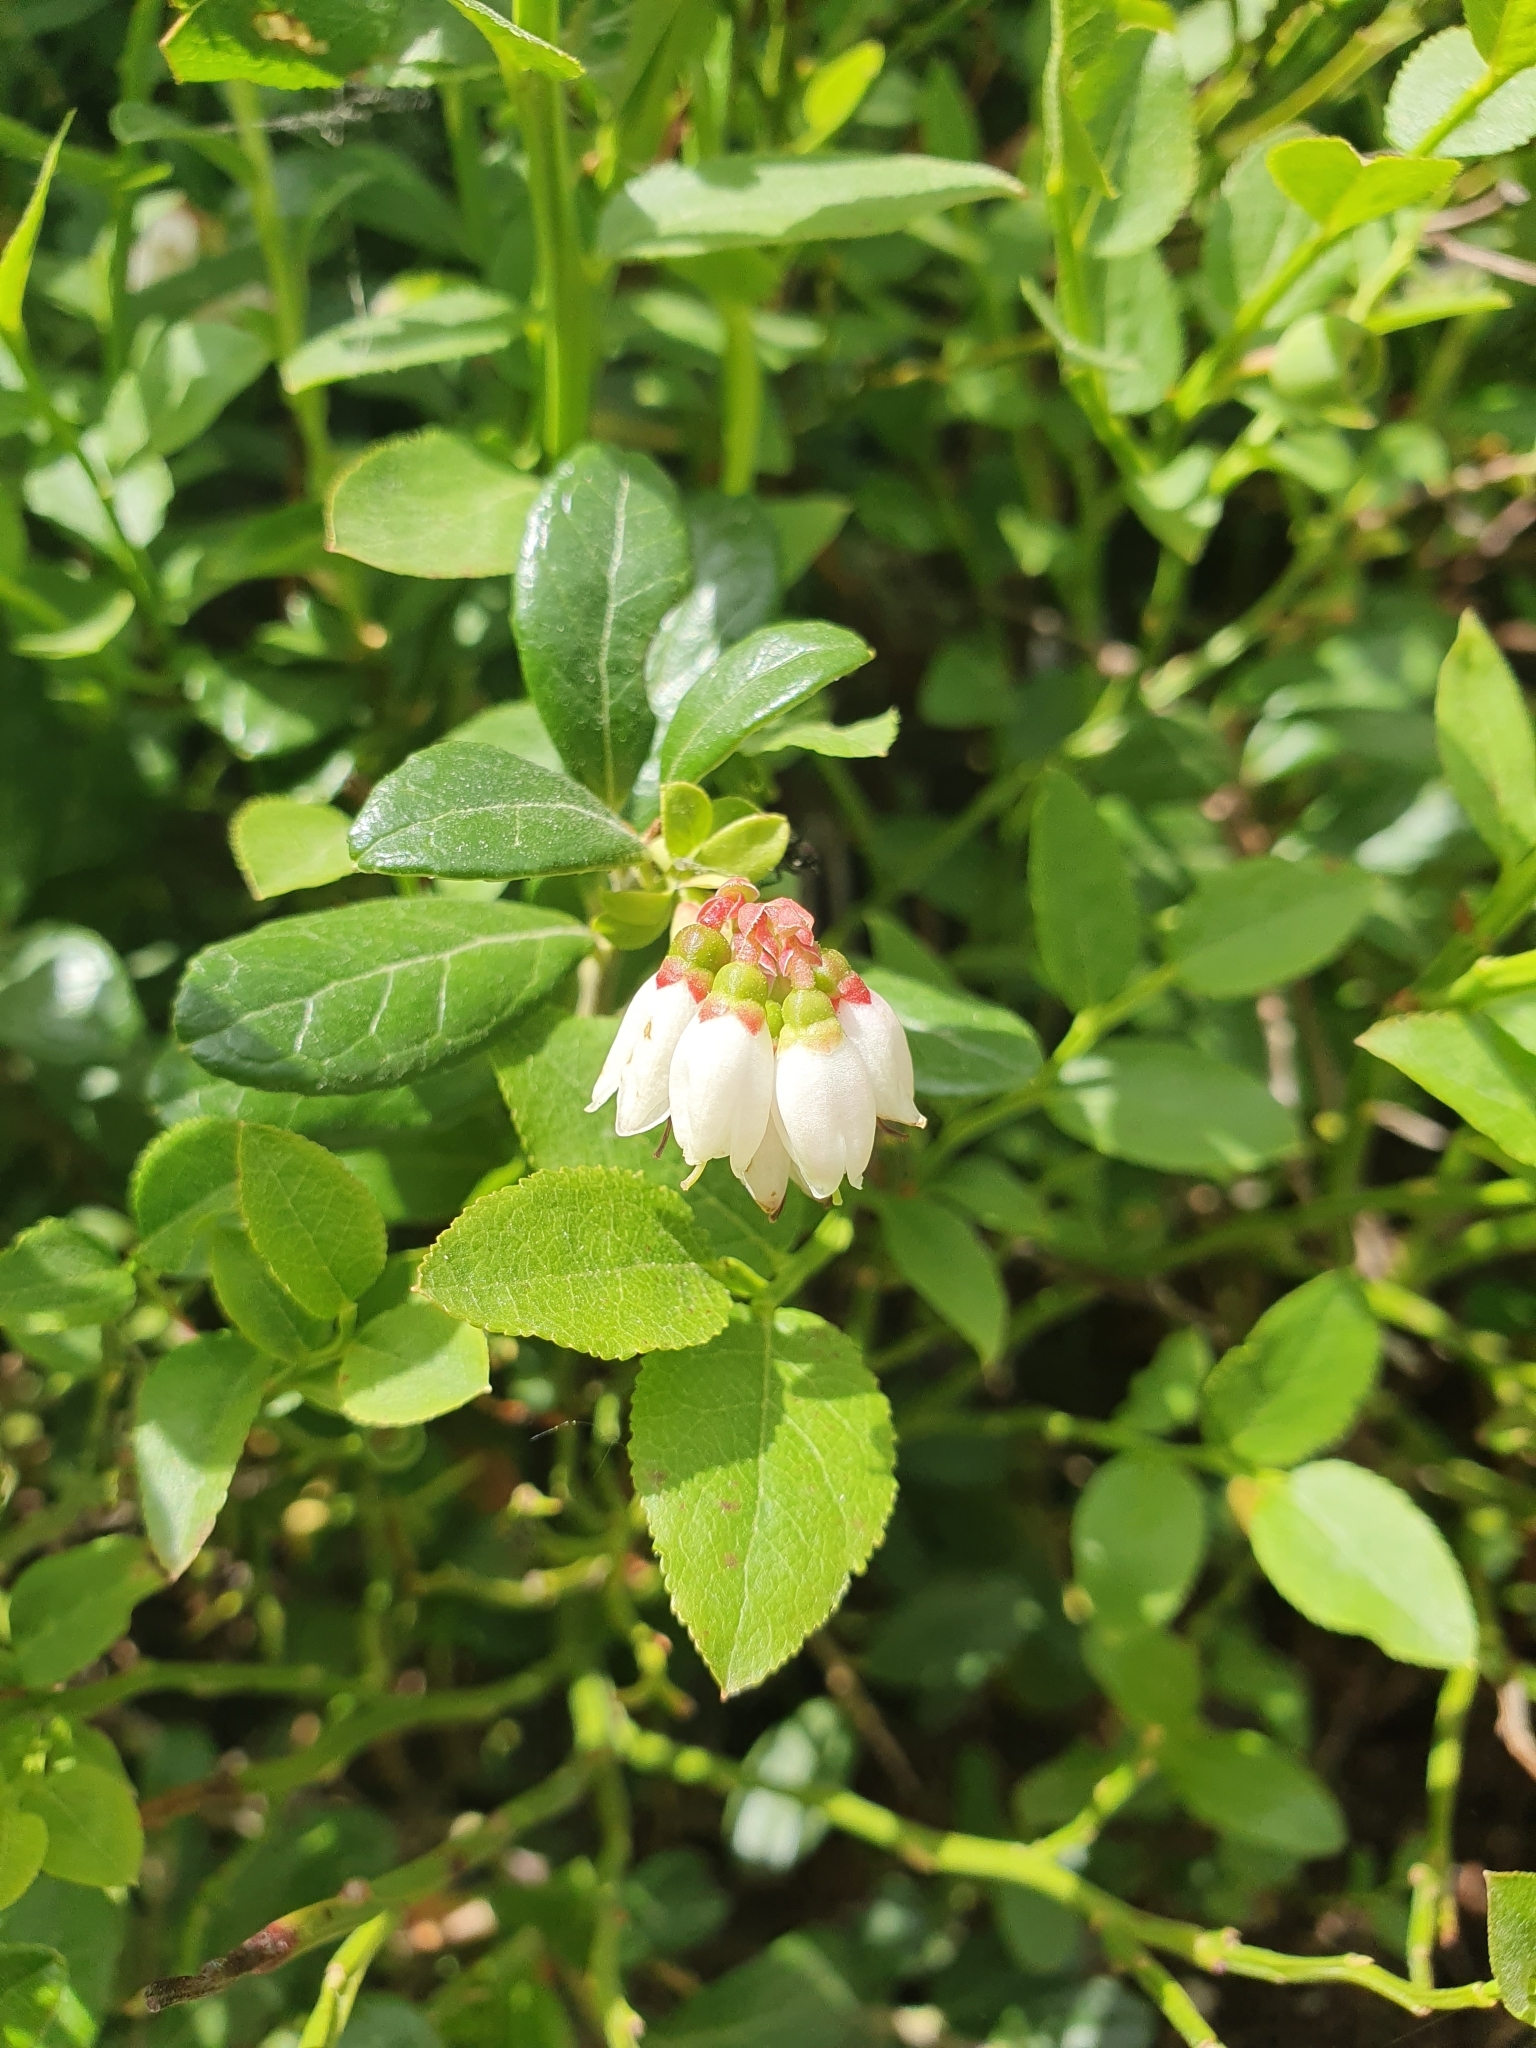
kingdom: Plantae
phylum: Tracheophyta
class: Magnoliopsida
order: Ericales
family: Ericaceae
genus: Vaccinium
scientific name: Vaccinium vitis-idaea
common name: Cowberry
